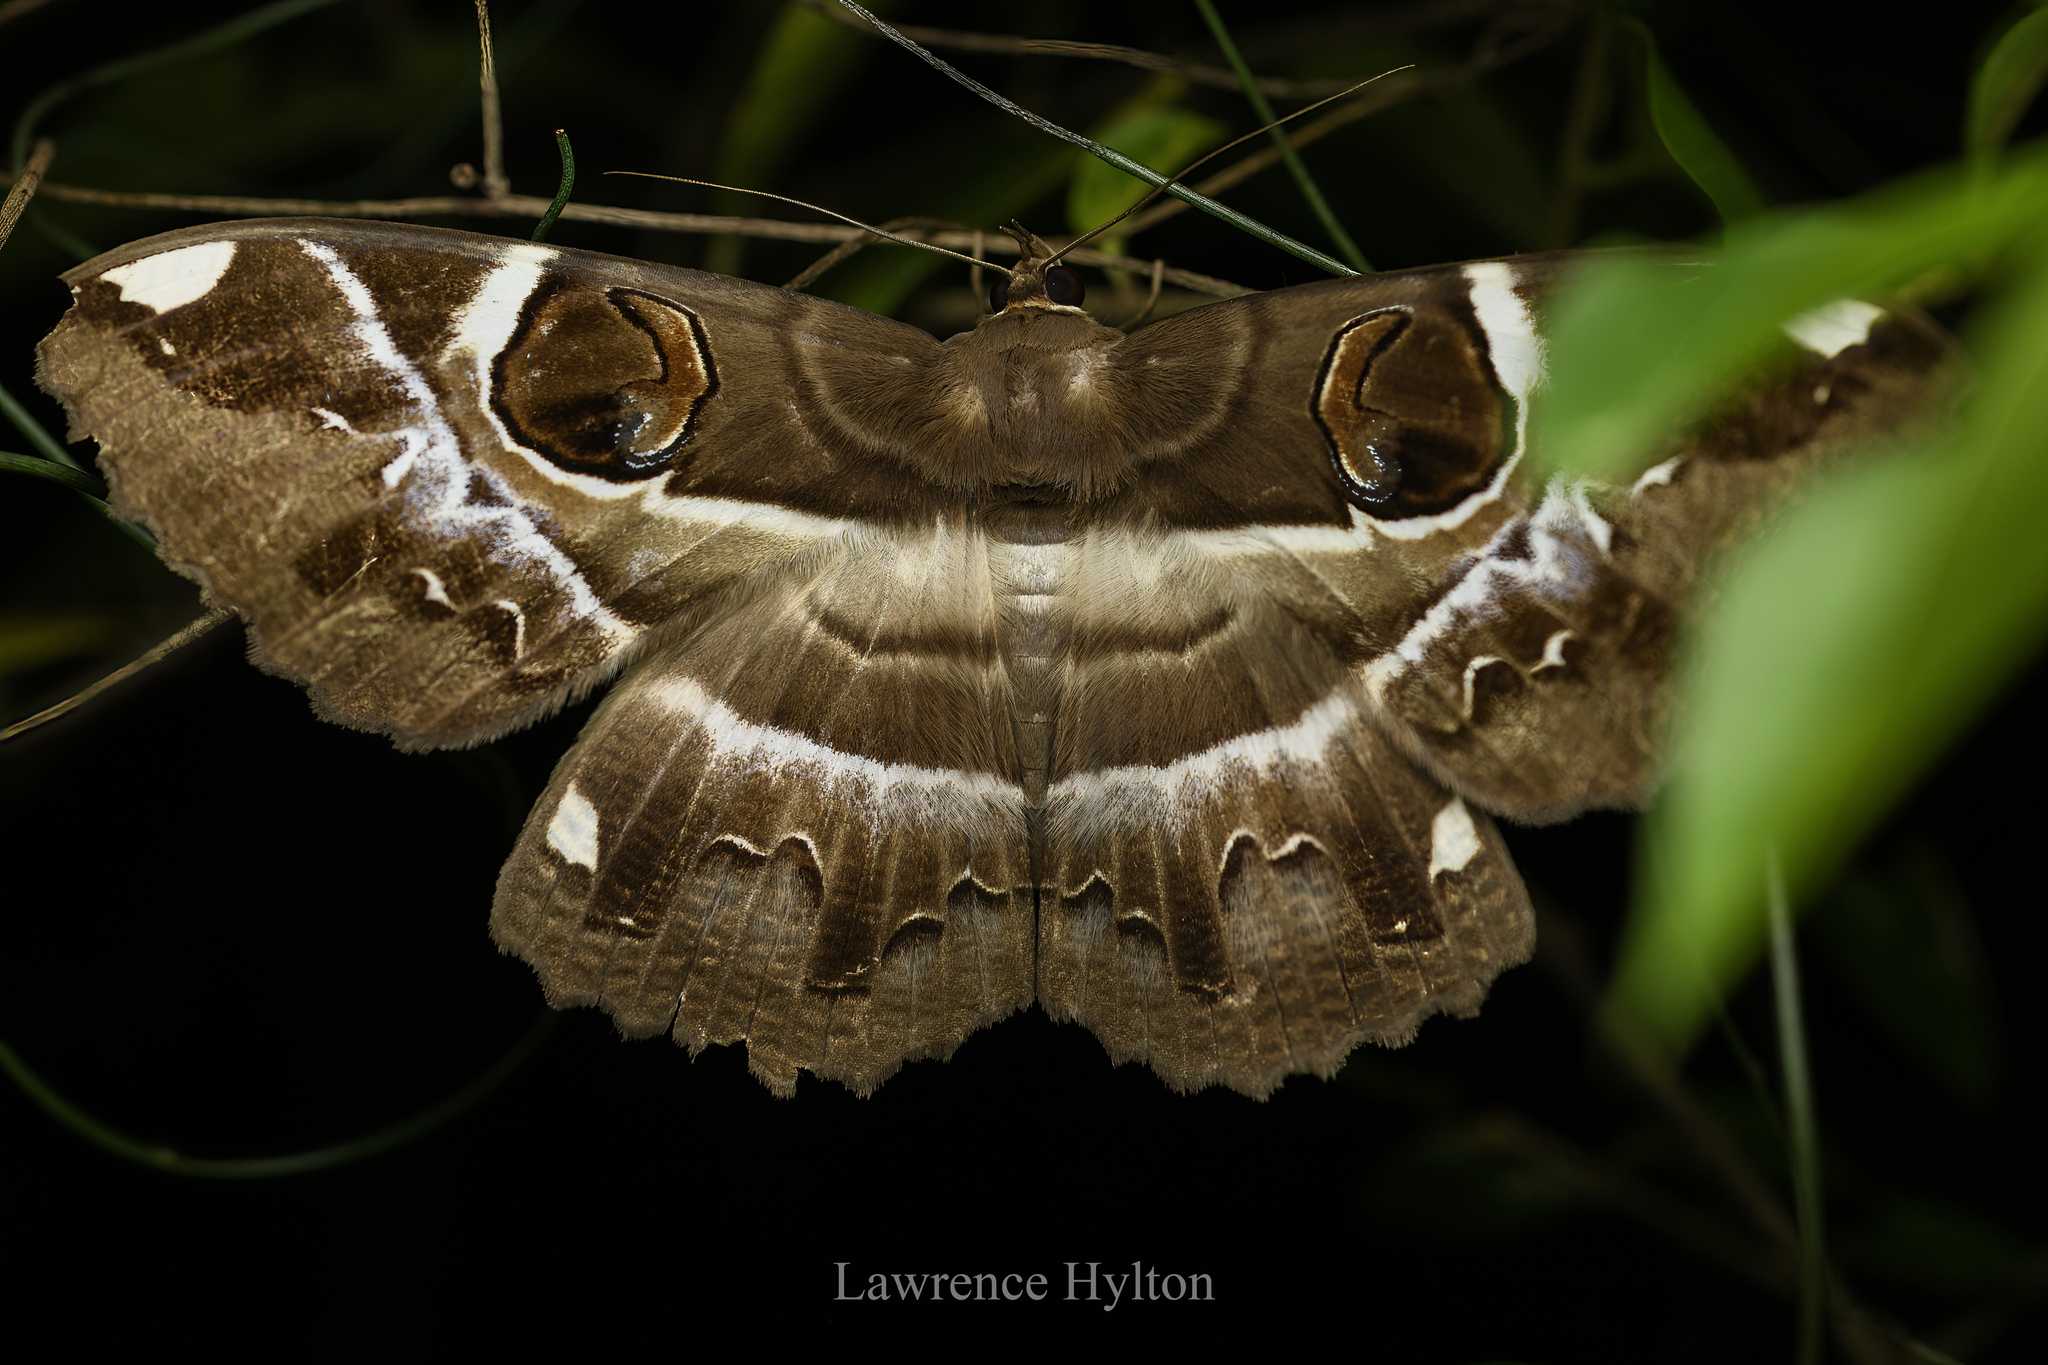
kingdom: Animalia
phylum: Arthropoda
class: Insecta
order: Lepidoptera
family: Erebidae
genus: Erebus
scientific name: Erebus ephesperis
